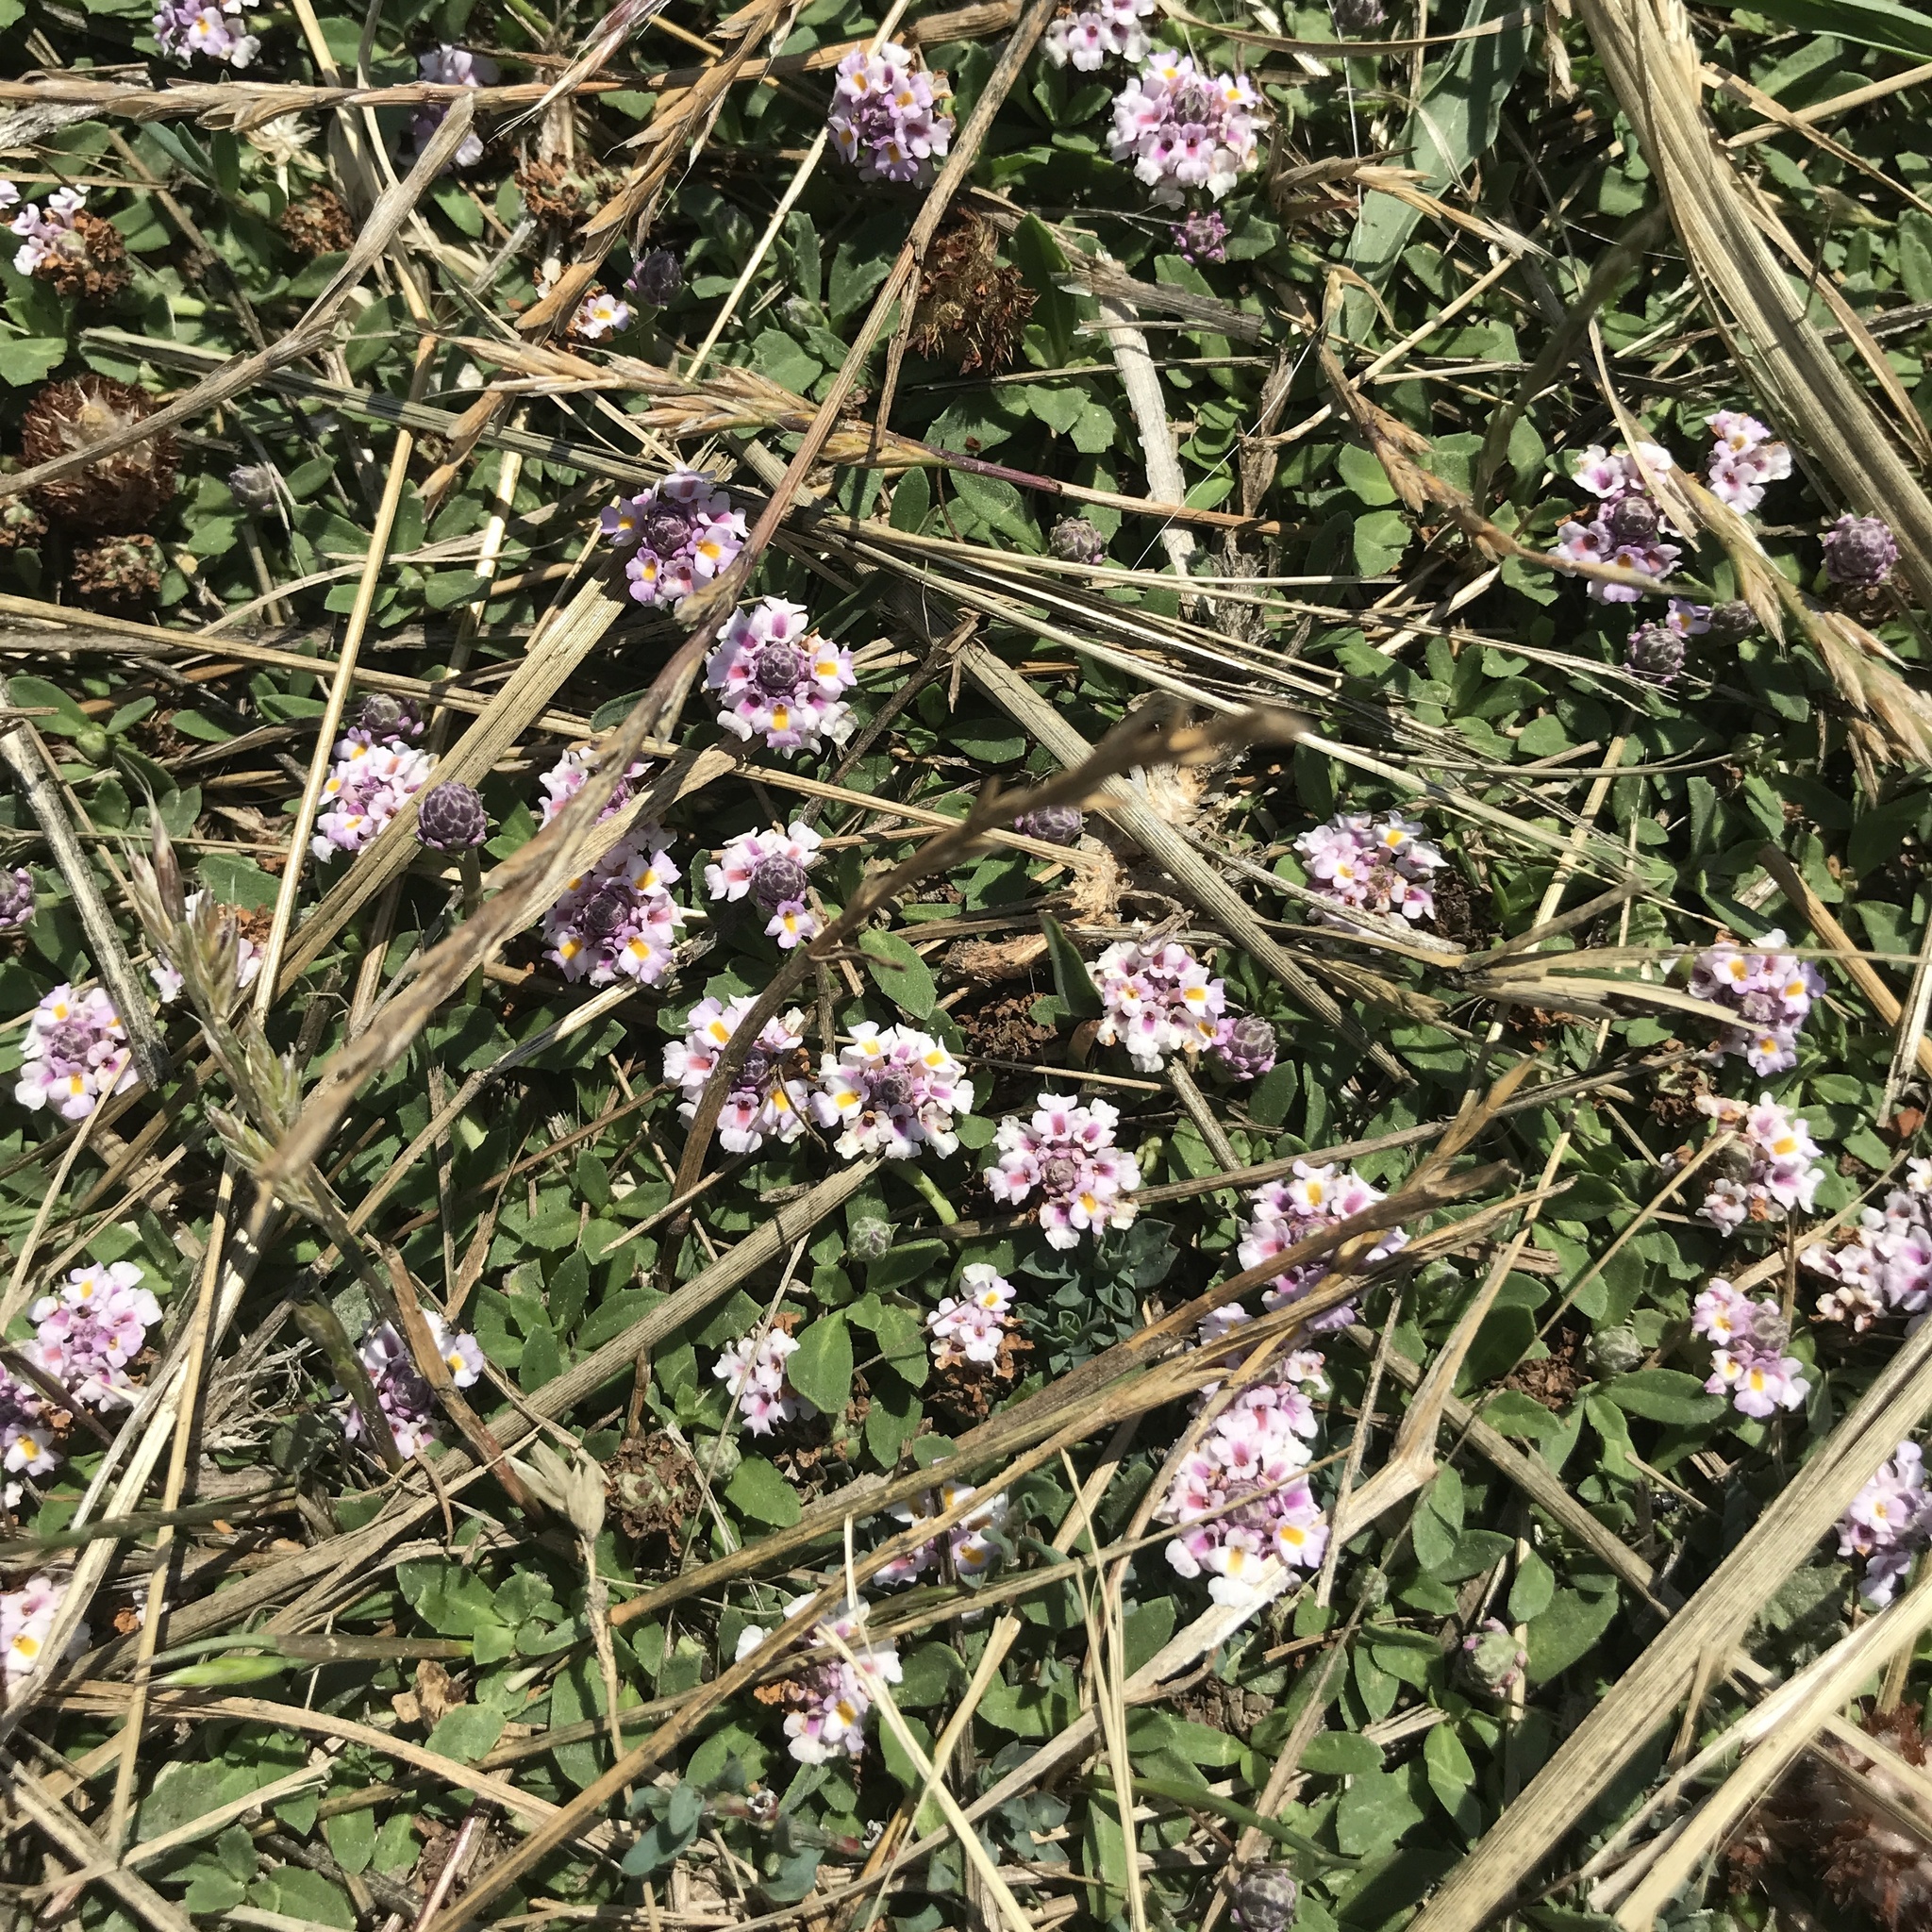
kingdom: Plantae
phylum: Tracheophyta
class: Magnoliopsida
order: Lamiales
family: Verbenaceae
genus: Phyla
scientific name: Phyla nodiflora
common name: Frogfruit
